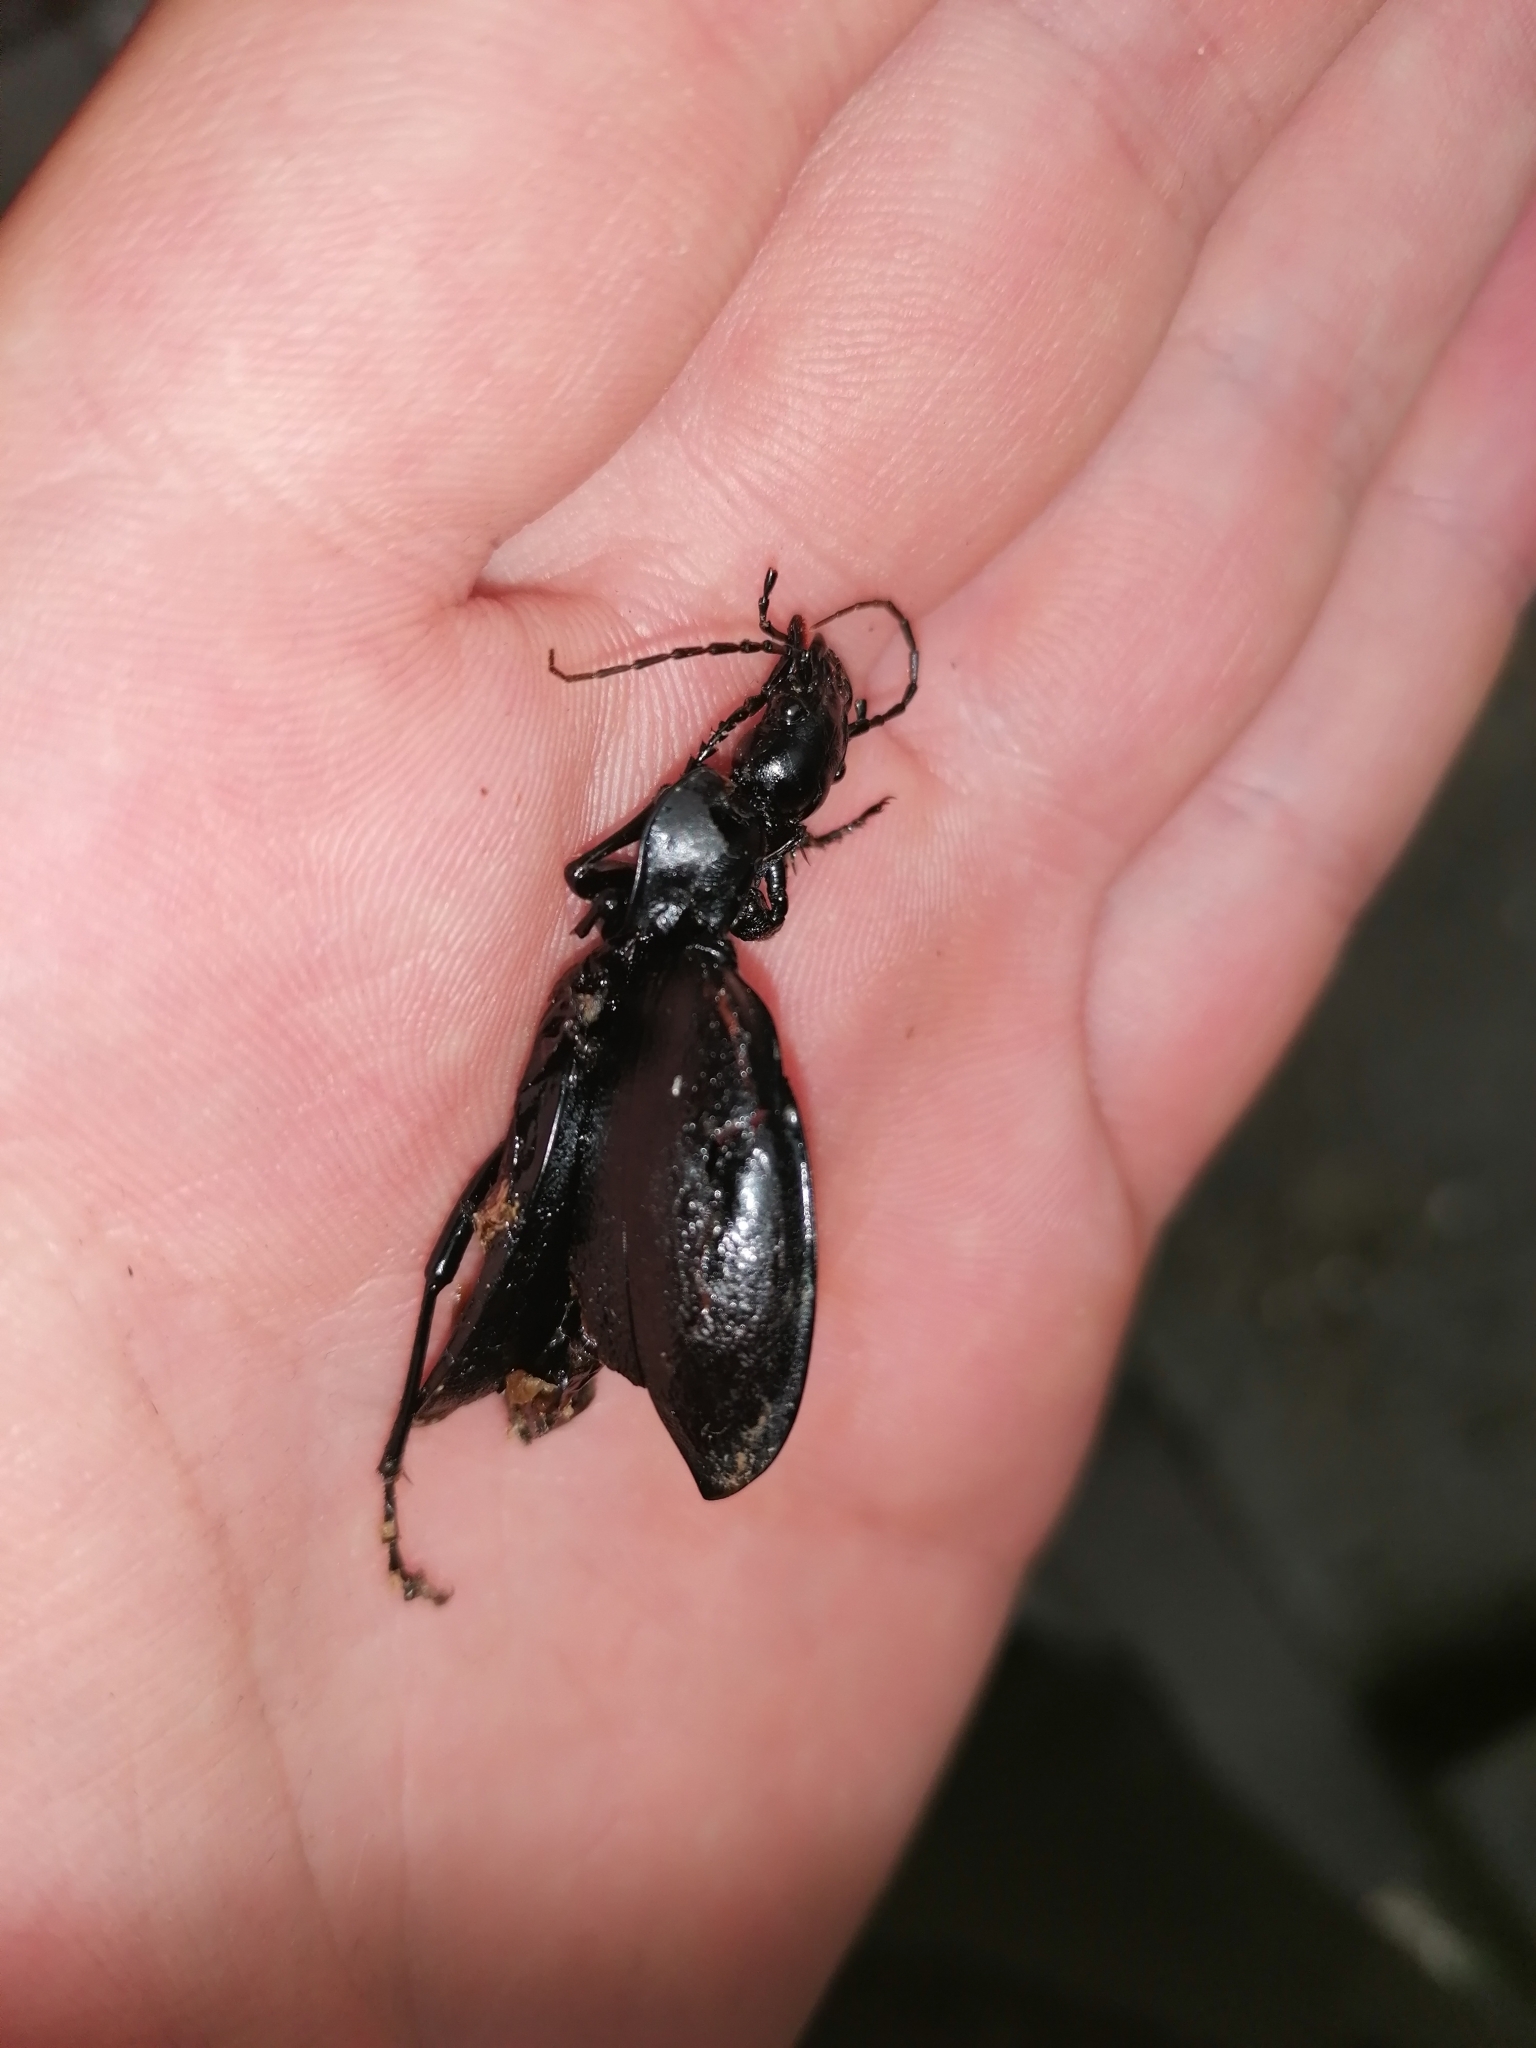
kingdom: Animalia
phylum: Arthropoda
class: Insecta
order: Coleoptera
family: Carabidae
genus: Cychrus
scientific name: Cychrus
